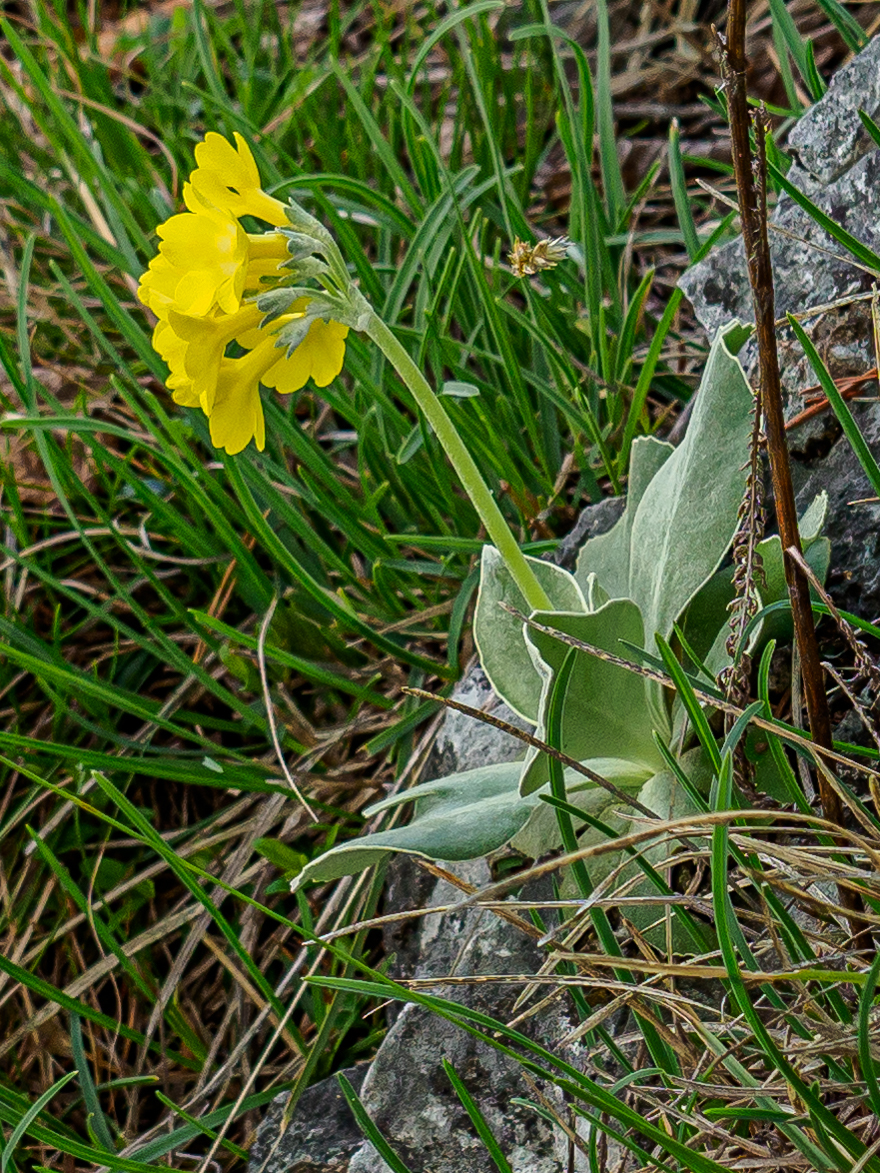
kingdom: Plantae
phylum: Tracheophyta
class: Magnoliopsida
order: Ericales
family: Primulaceae
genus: Primula
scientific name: Primula auricula
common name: Auricula
